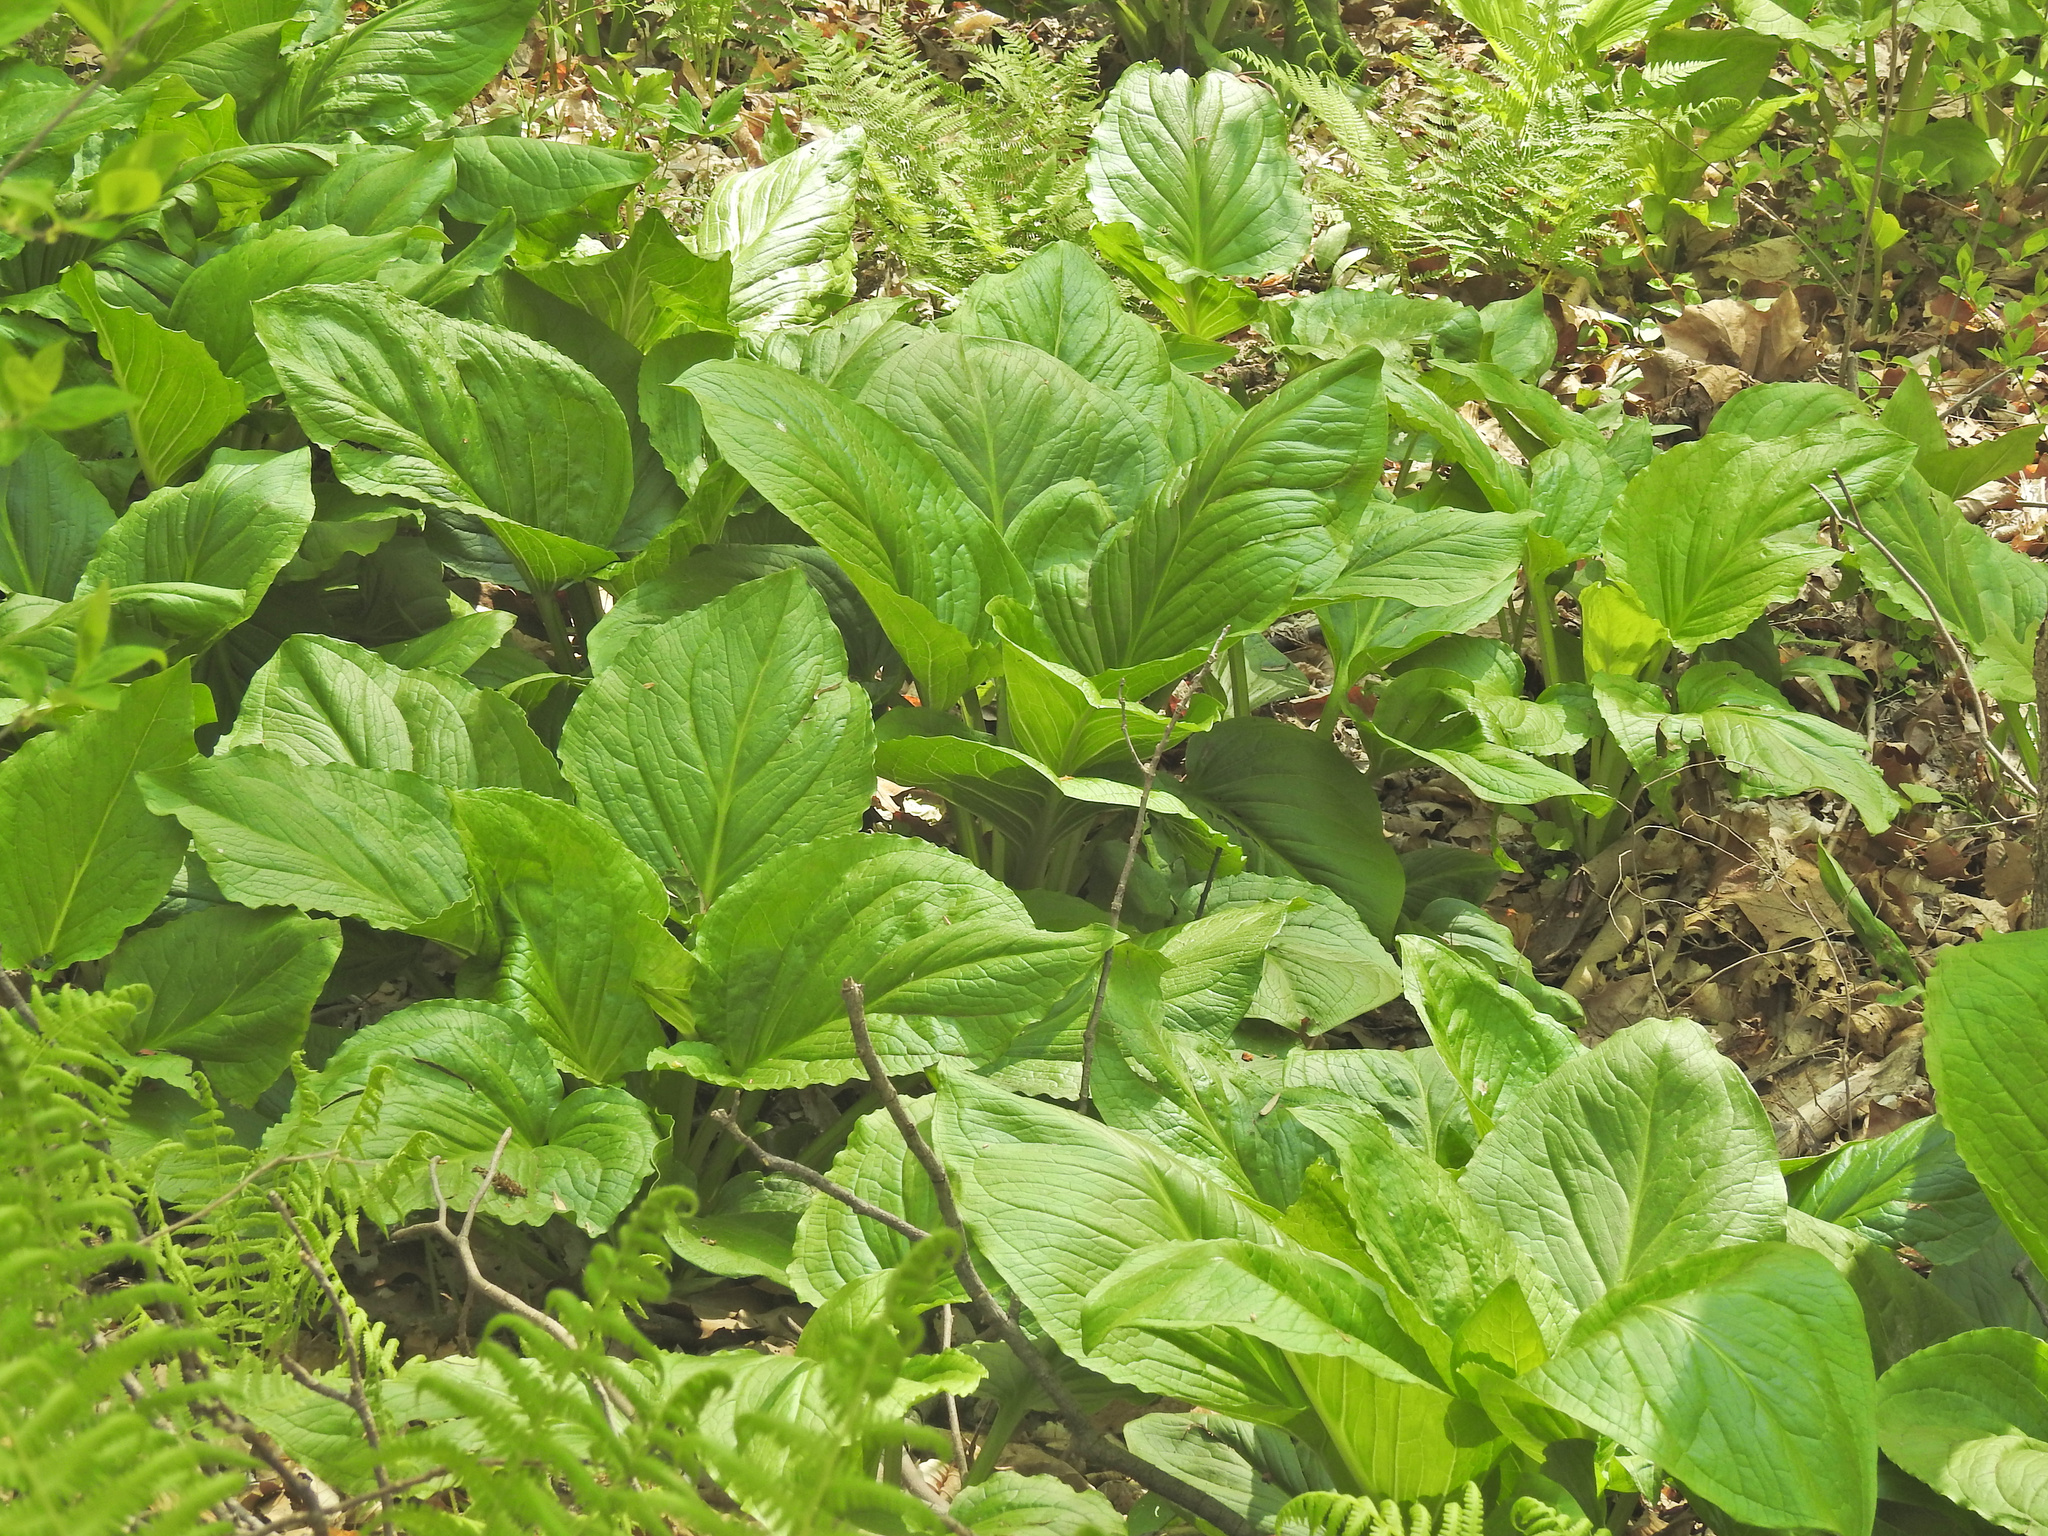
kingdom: Plantae
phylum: Tracheophyta
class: Liliopsida
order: Alismatales
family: Araceae
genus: Symplocarpus
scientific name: Symplocarpus foetidus
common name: Eastern skunk cabbage
